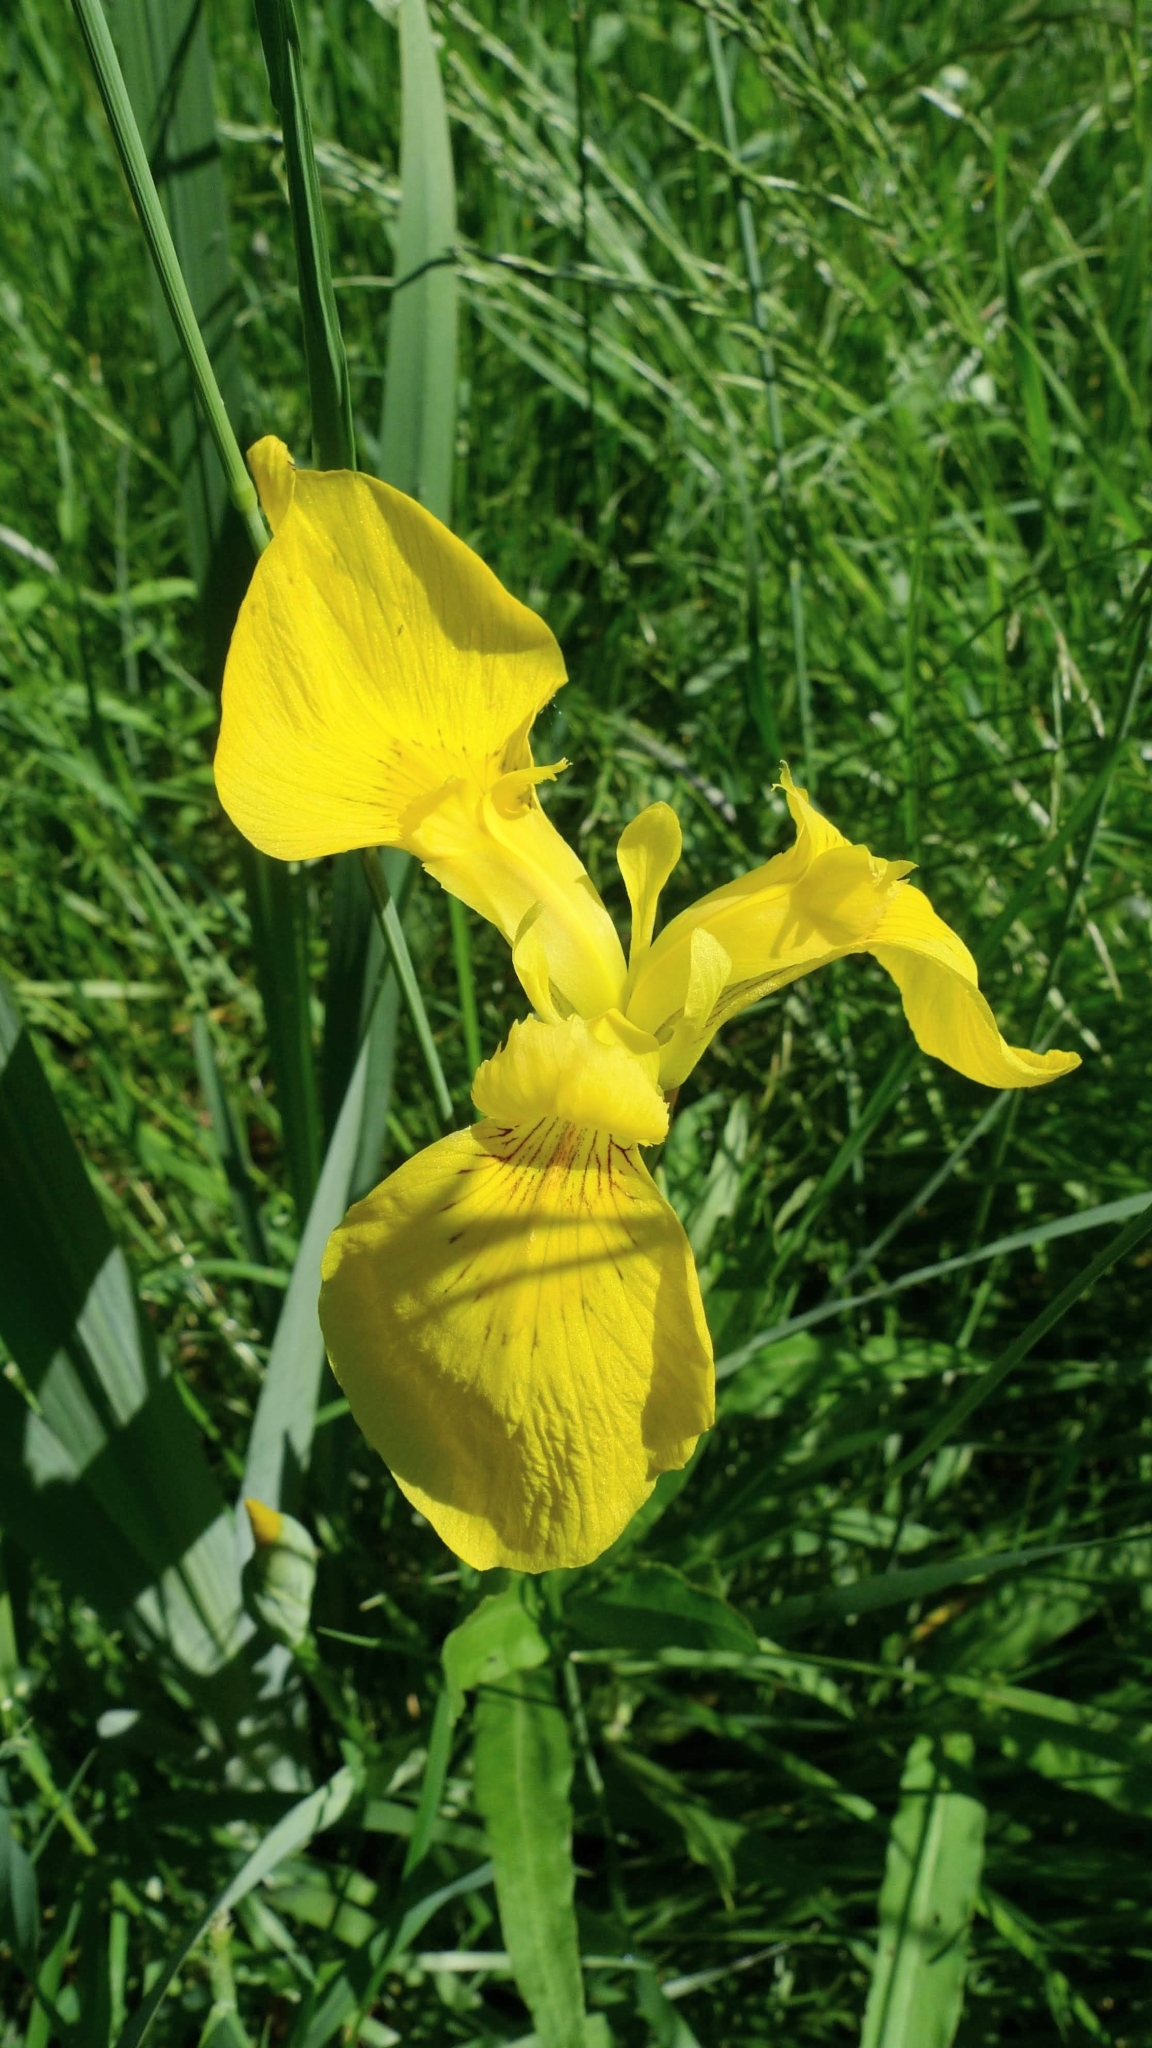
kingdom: Plantae
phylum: Tracheophyta
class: Liliopsida
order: Asparagales
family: Iridaceae
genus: Iris
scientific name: Iris pseudacorus
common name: Yellow flag
